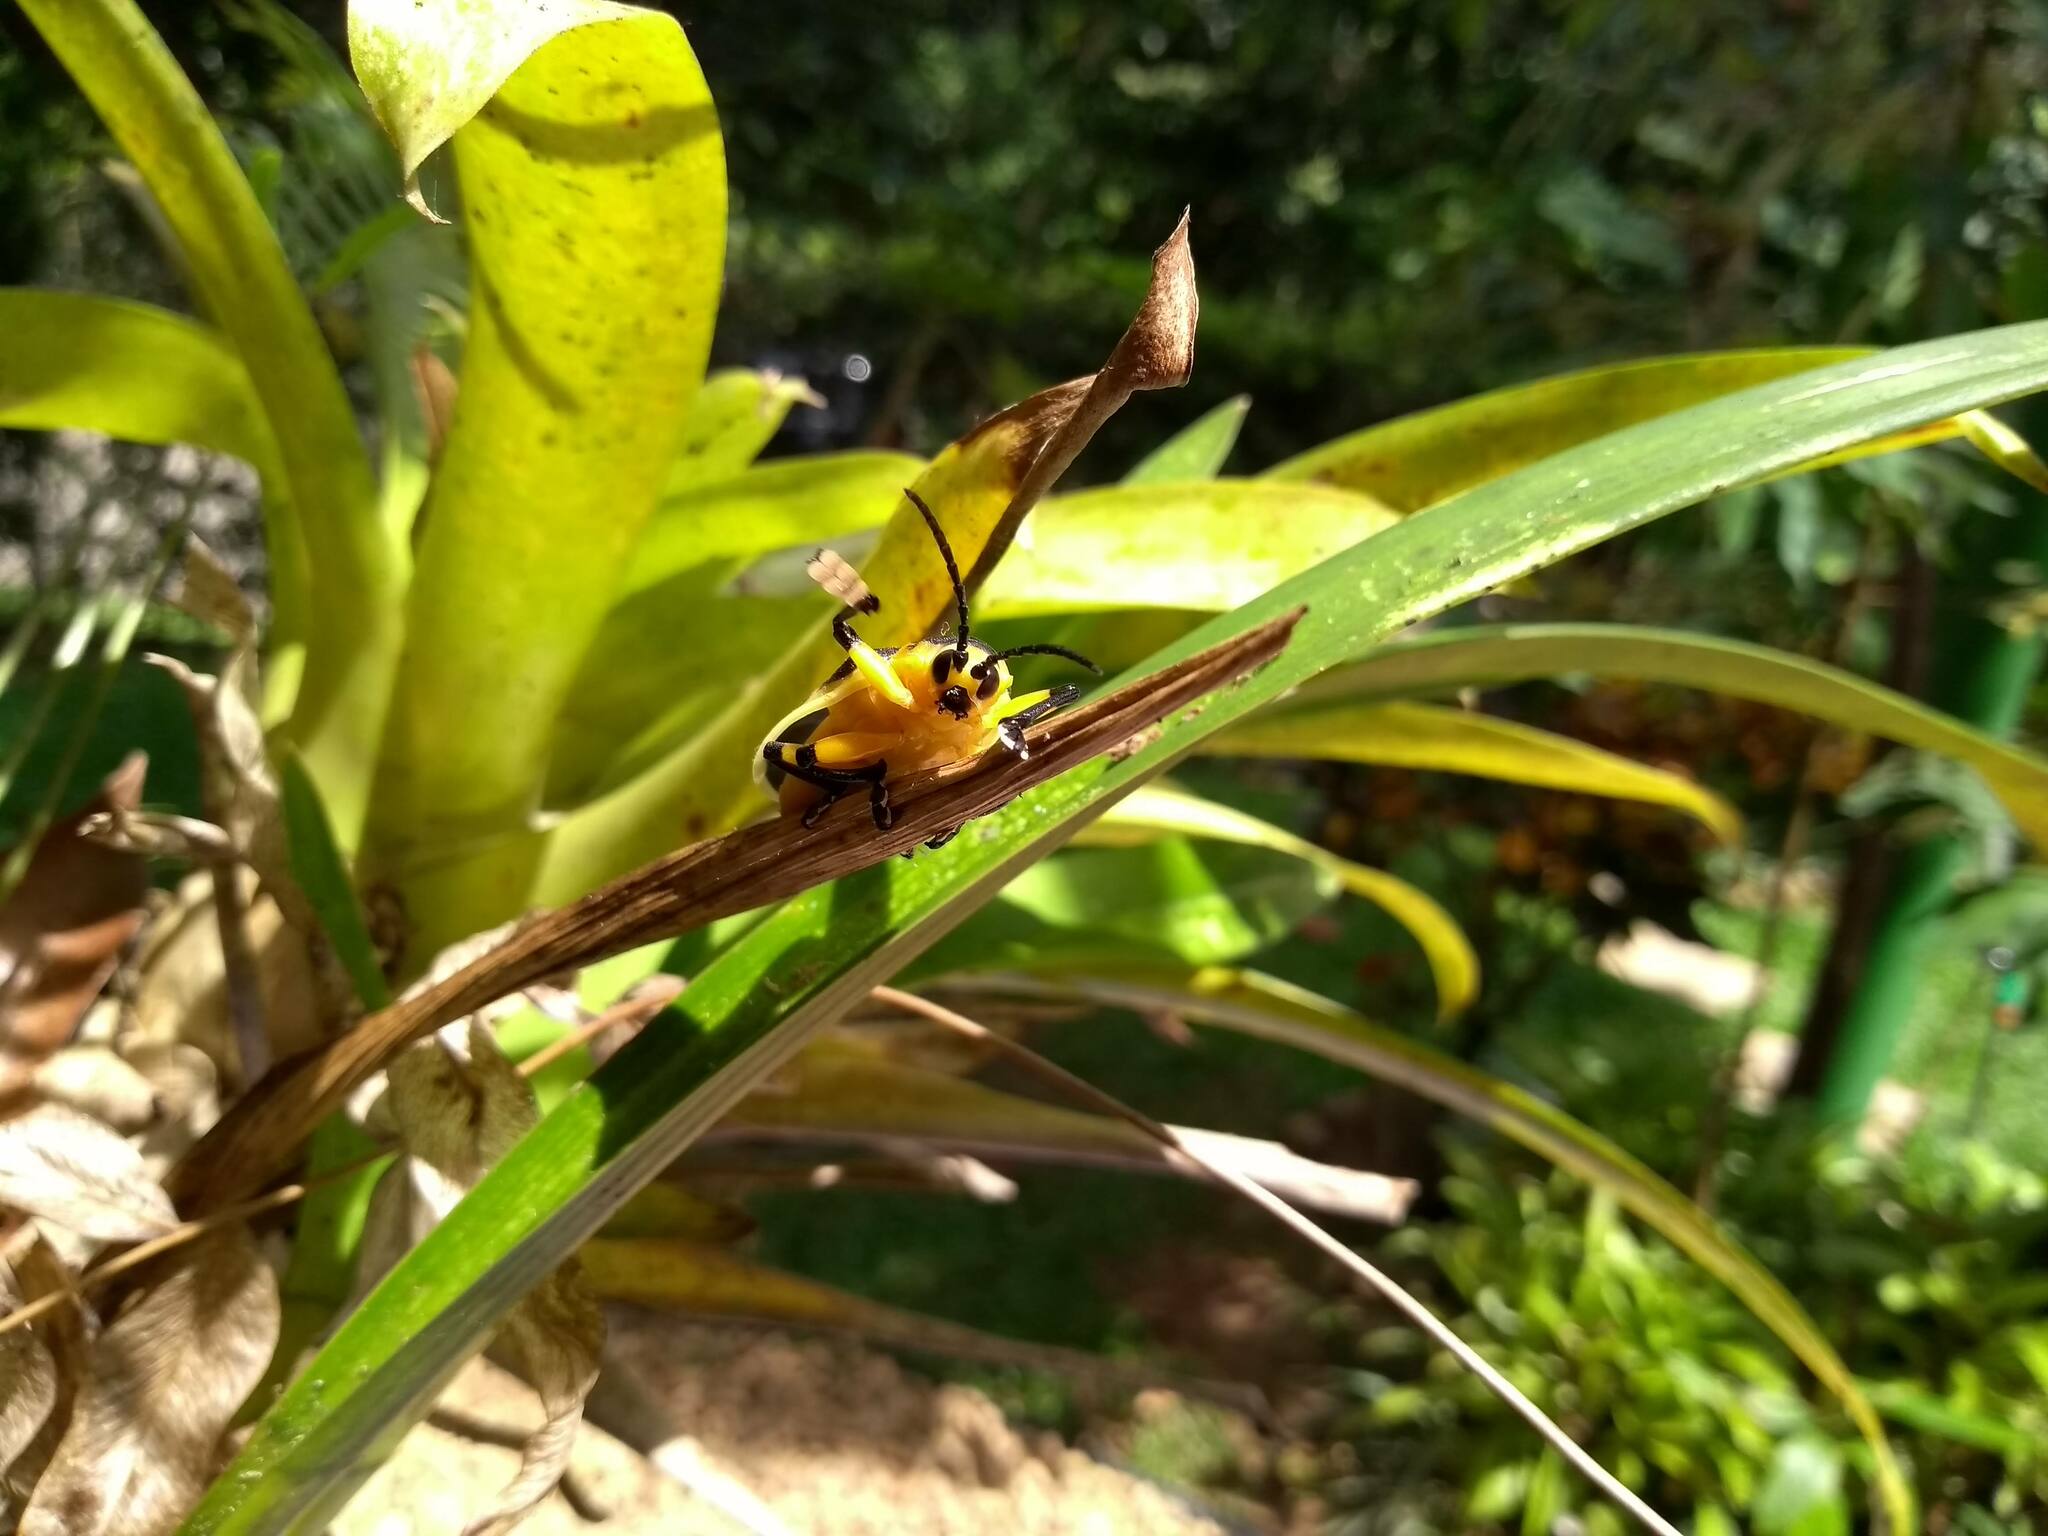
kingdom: Animalia
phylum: Arthropoda
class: Insecta
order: Coleoptera
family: Chrysomelidae
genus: Mecistomela
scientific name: Mecistomela marginata
